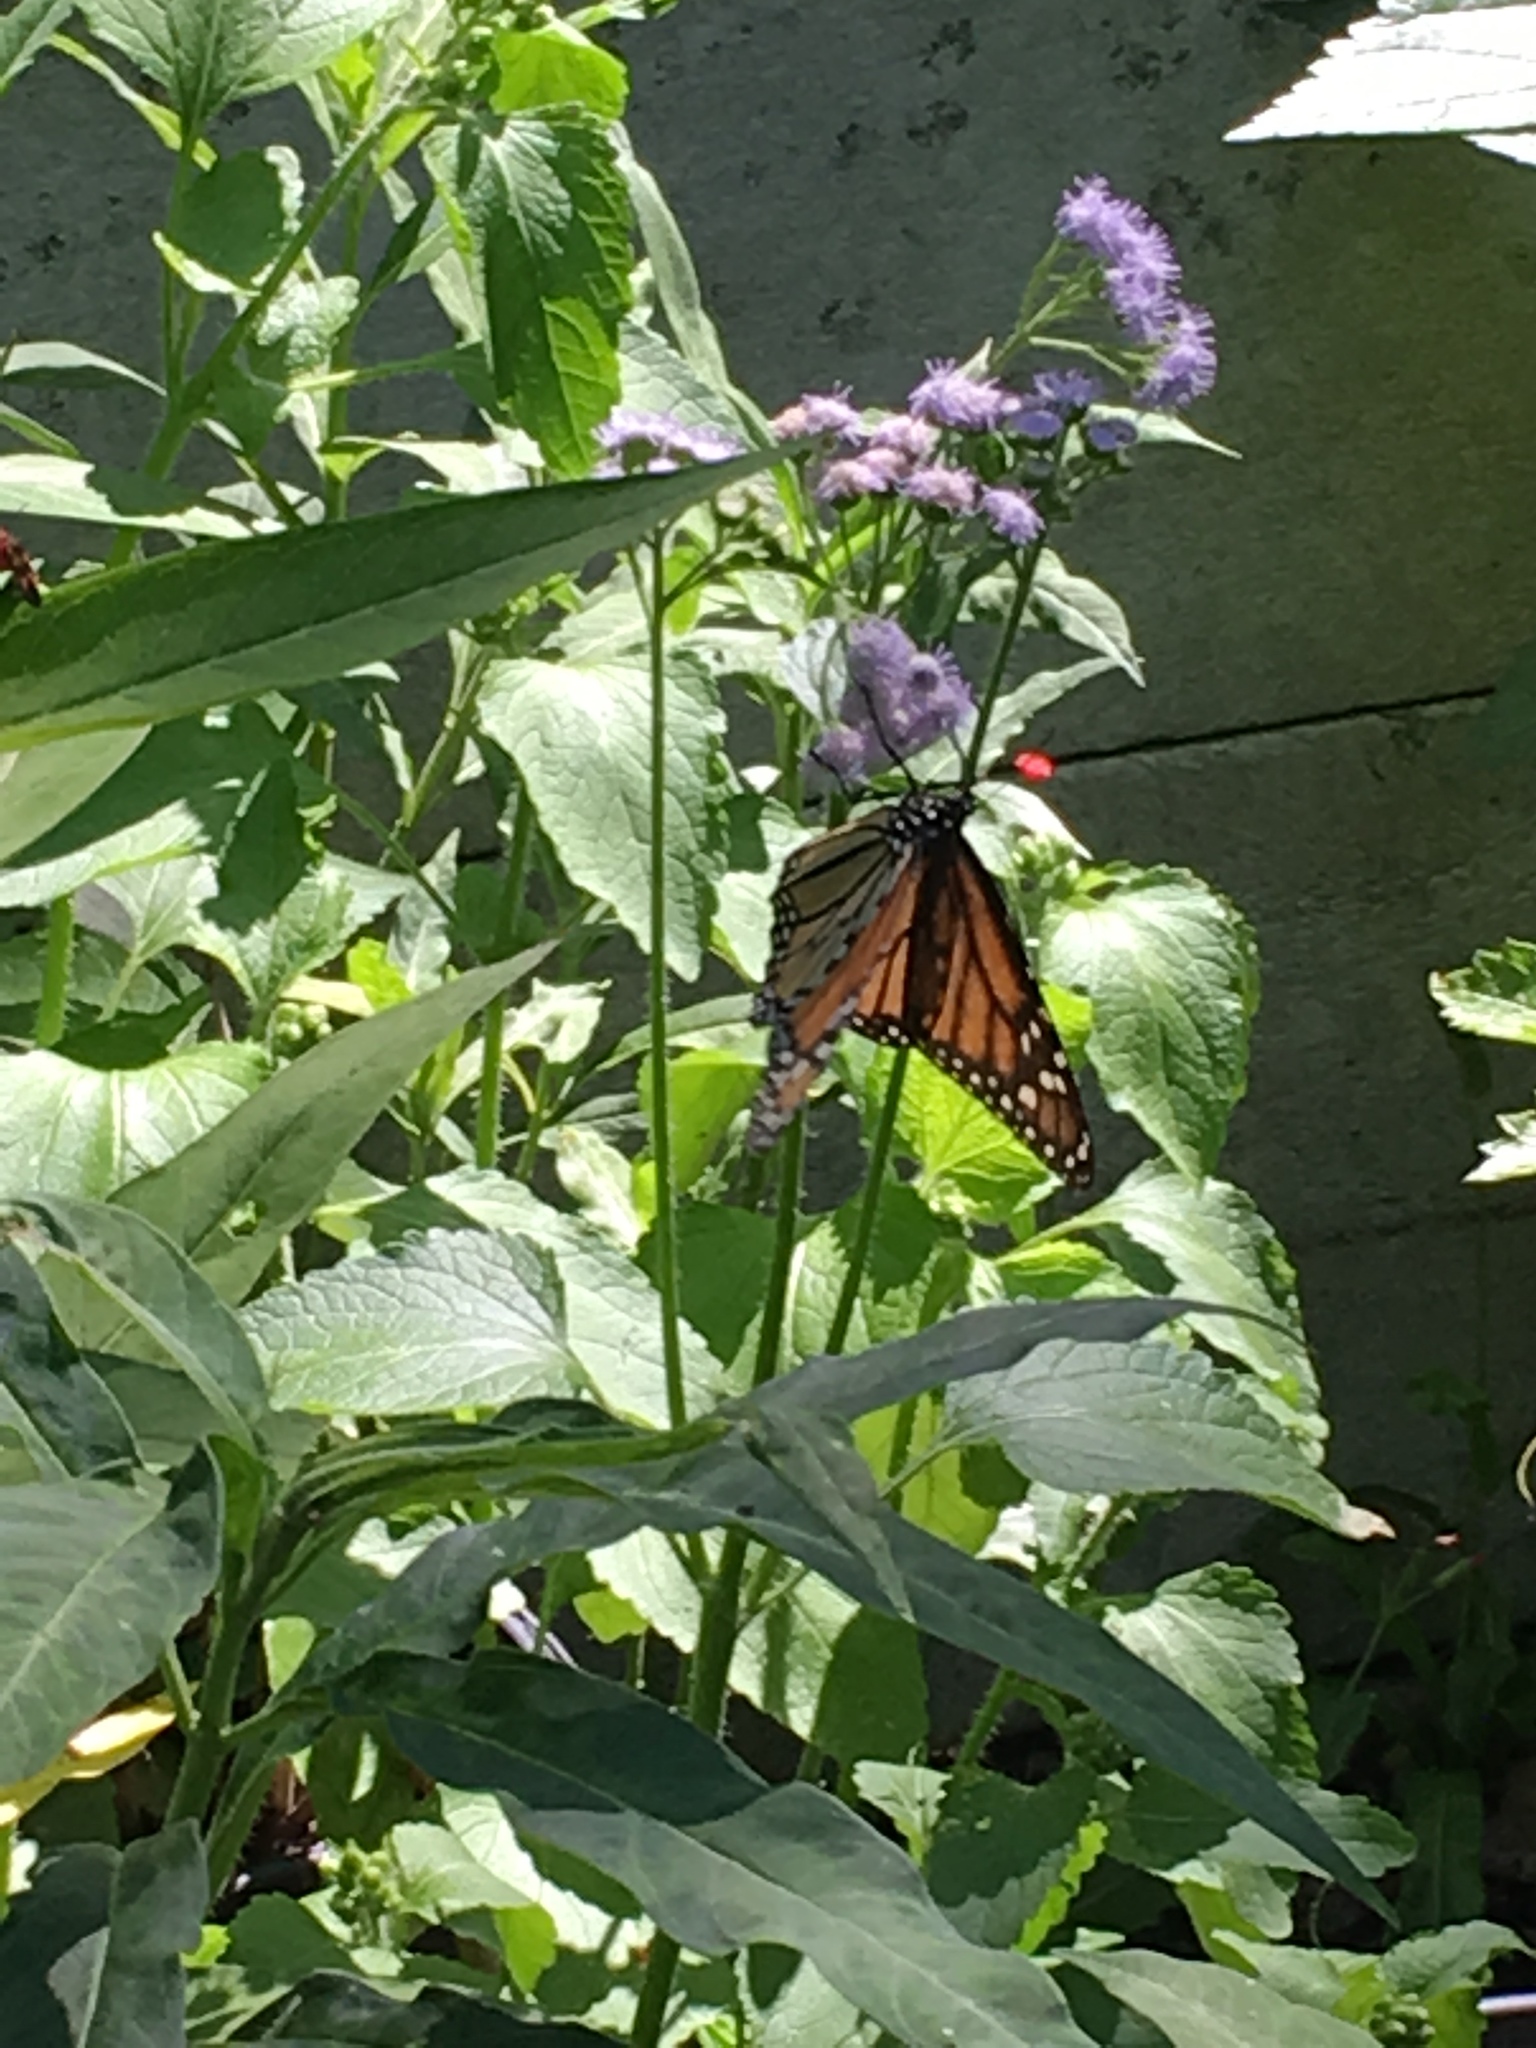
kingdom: Animalia
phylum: Arthropoda
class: Insecta
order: Lepidoptera
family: Nymphalidae
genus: Danaus
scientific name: Danaus plexippus
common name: Monarch
